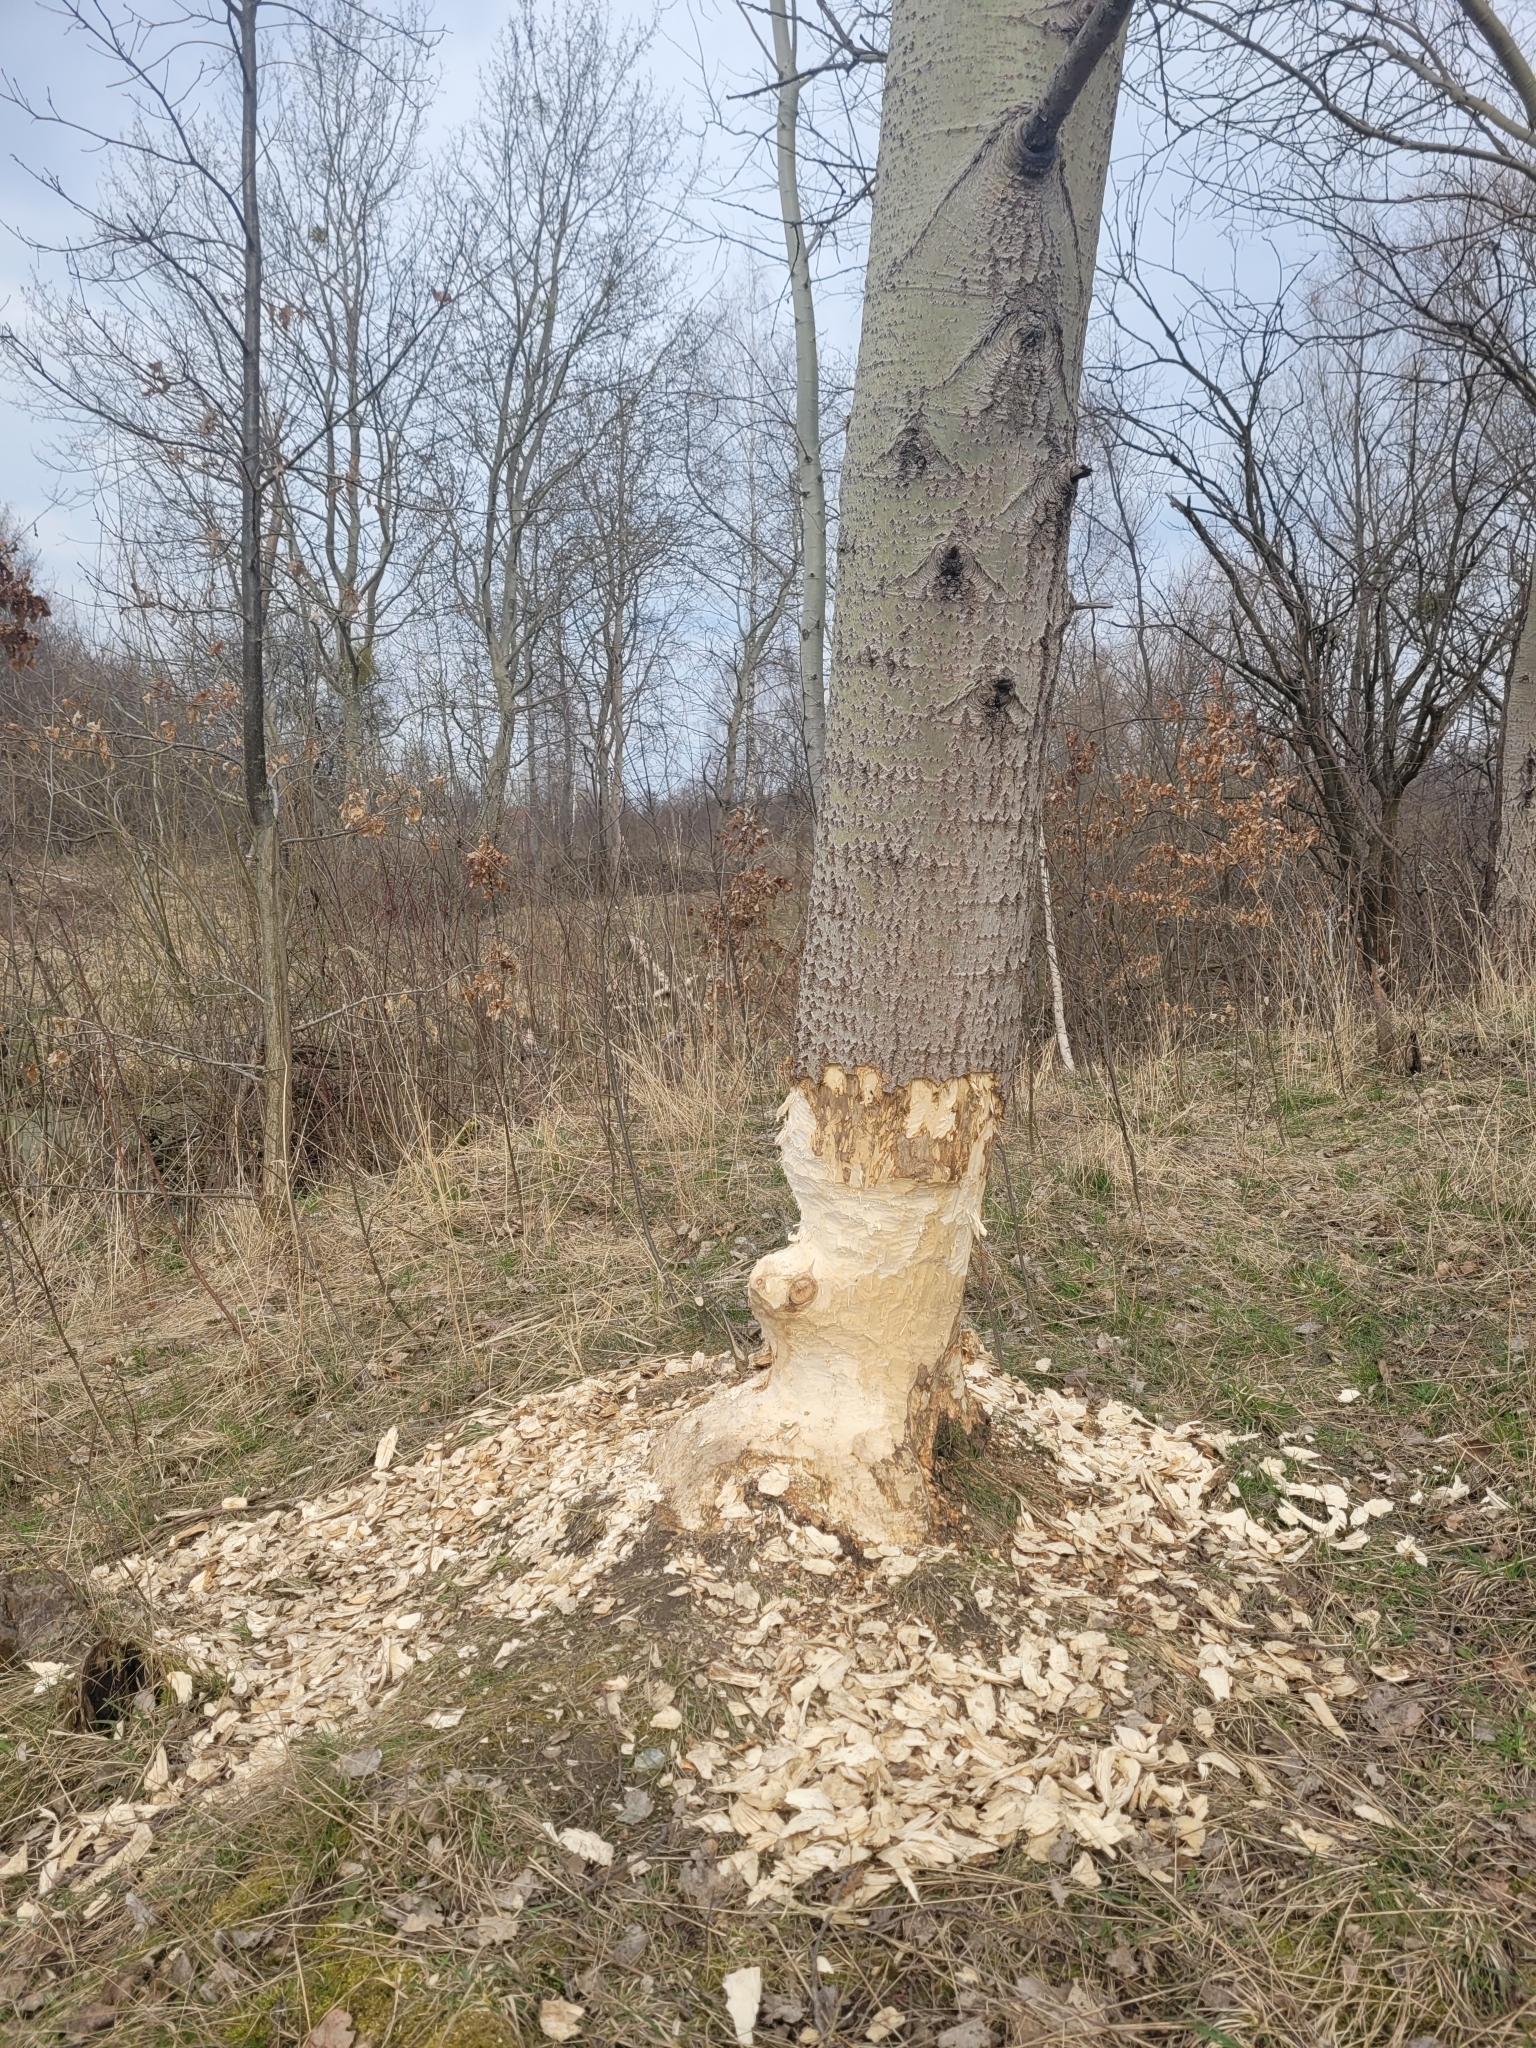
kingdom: Animalia
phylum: Chordata
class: Mammalia
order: Rodentia
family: Castoridae
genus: Castor
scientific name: Castor fiber
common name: Eurasian beaver
